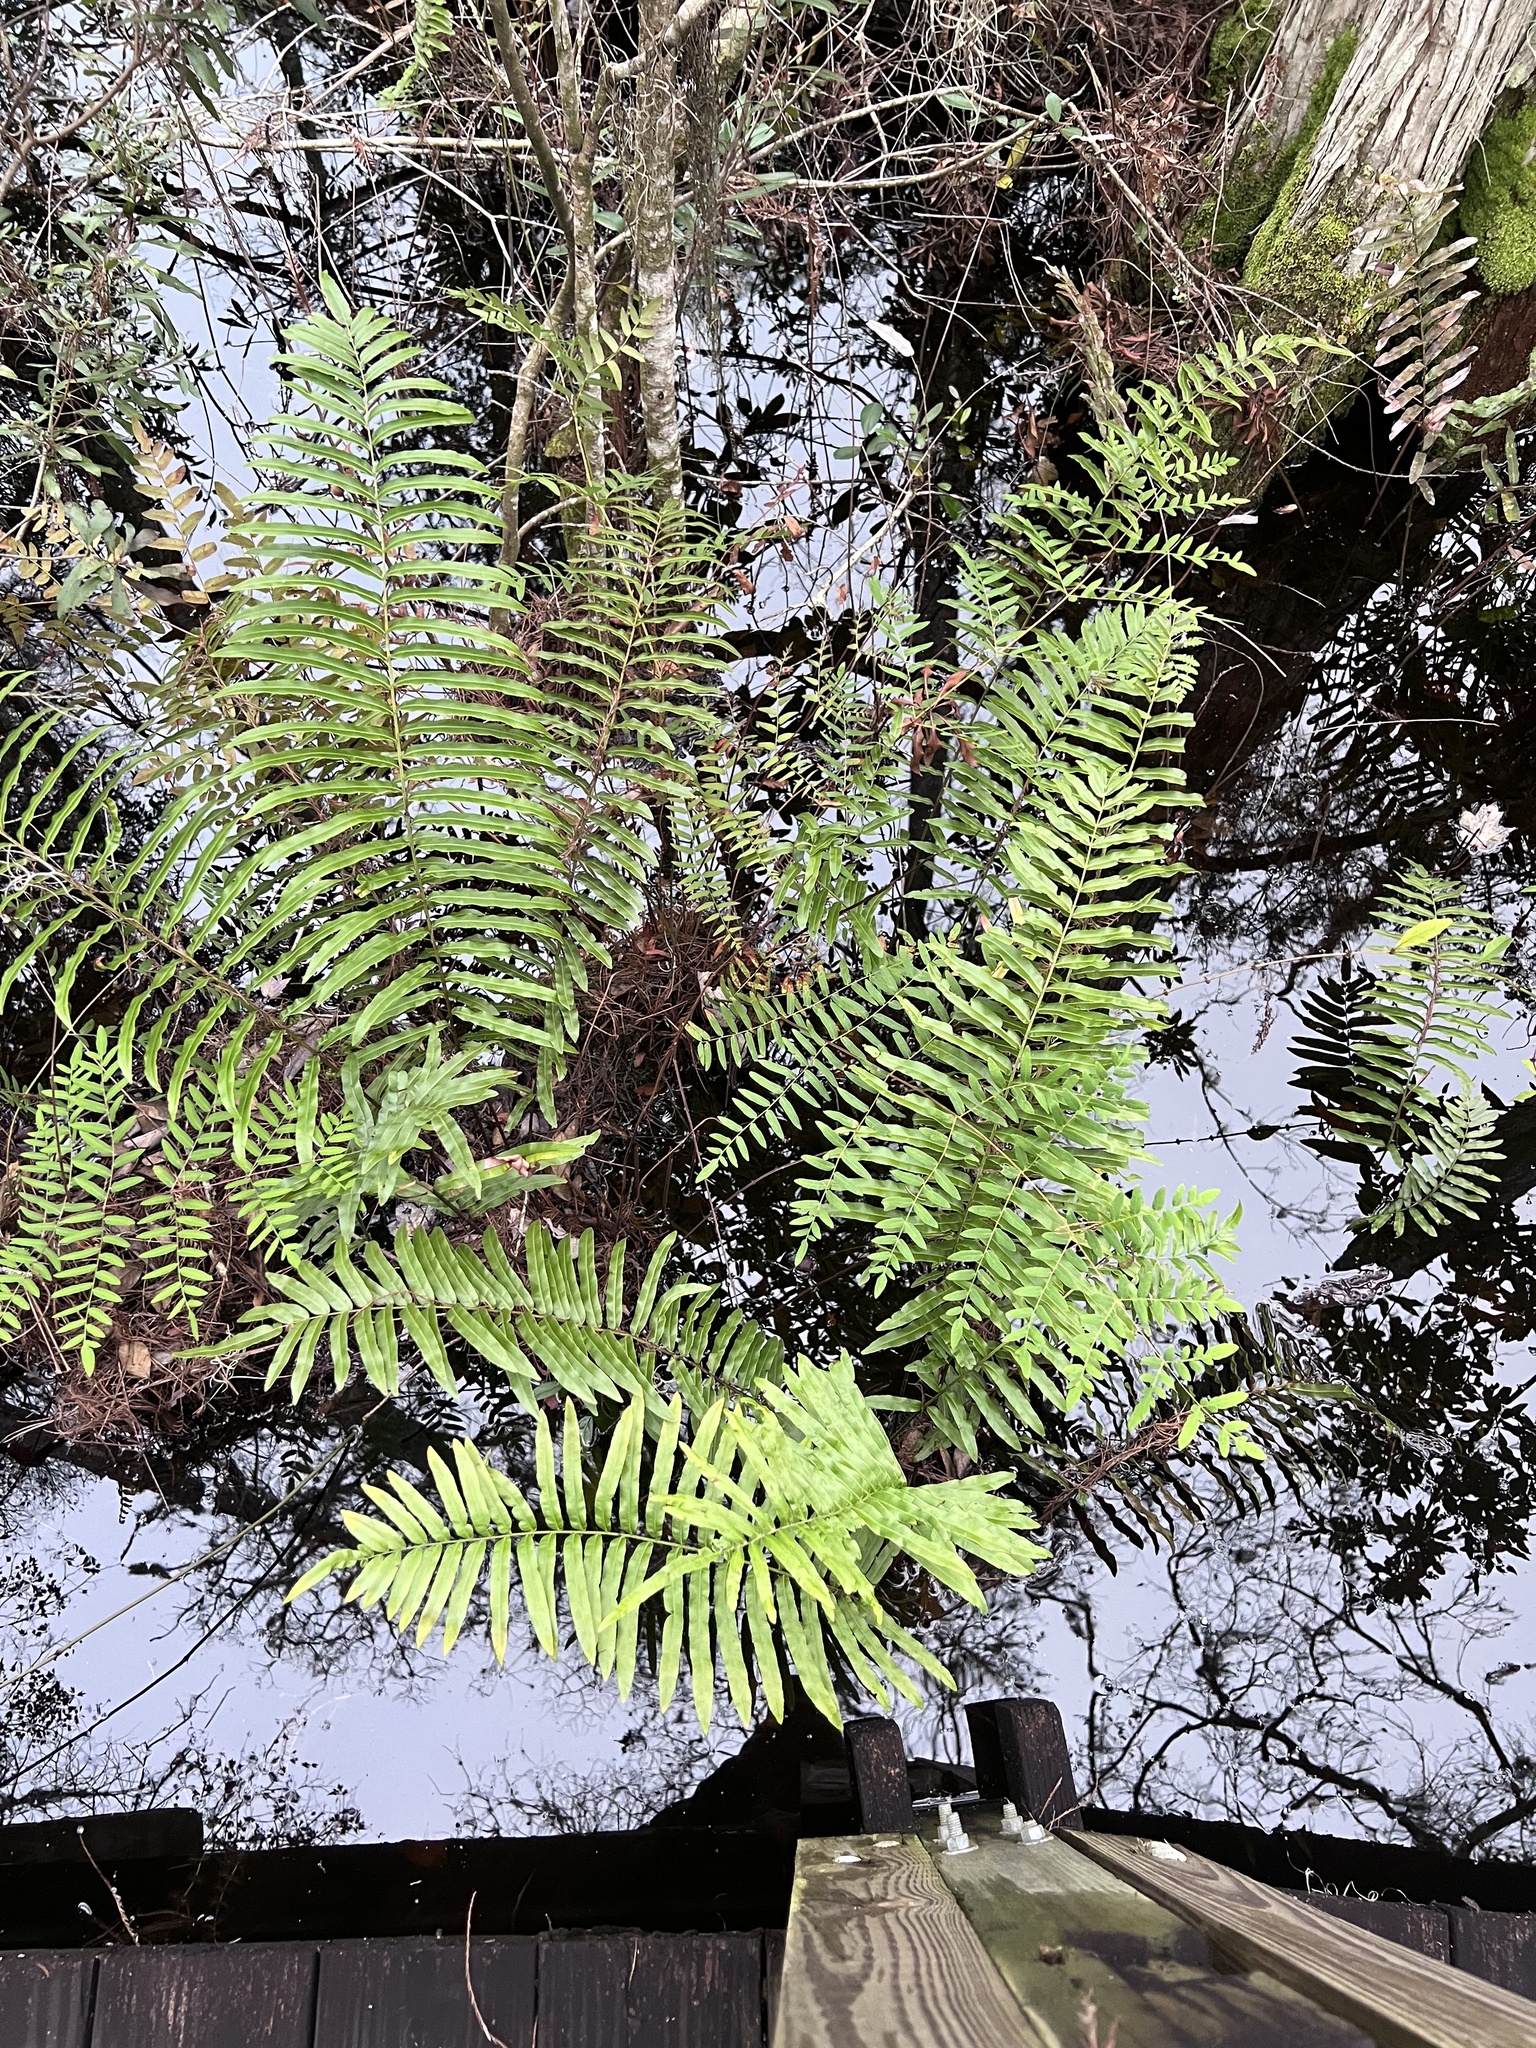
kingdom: Plantae
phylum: Tracheophyta
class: Polypodiopsida
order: Polypodiales
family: Blechnaceae
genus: Telmatoblechnum
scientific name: Telmatoblechnum serrulatum
